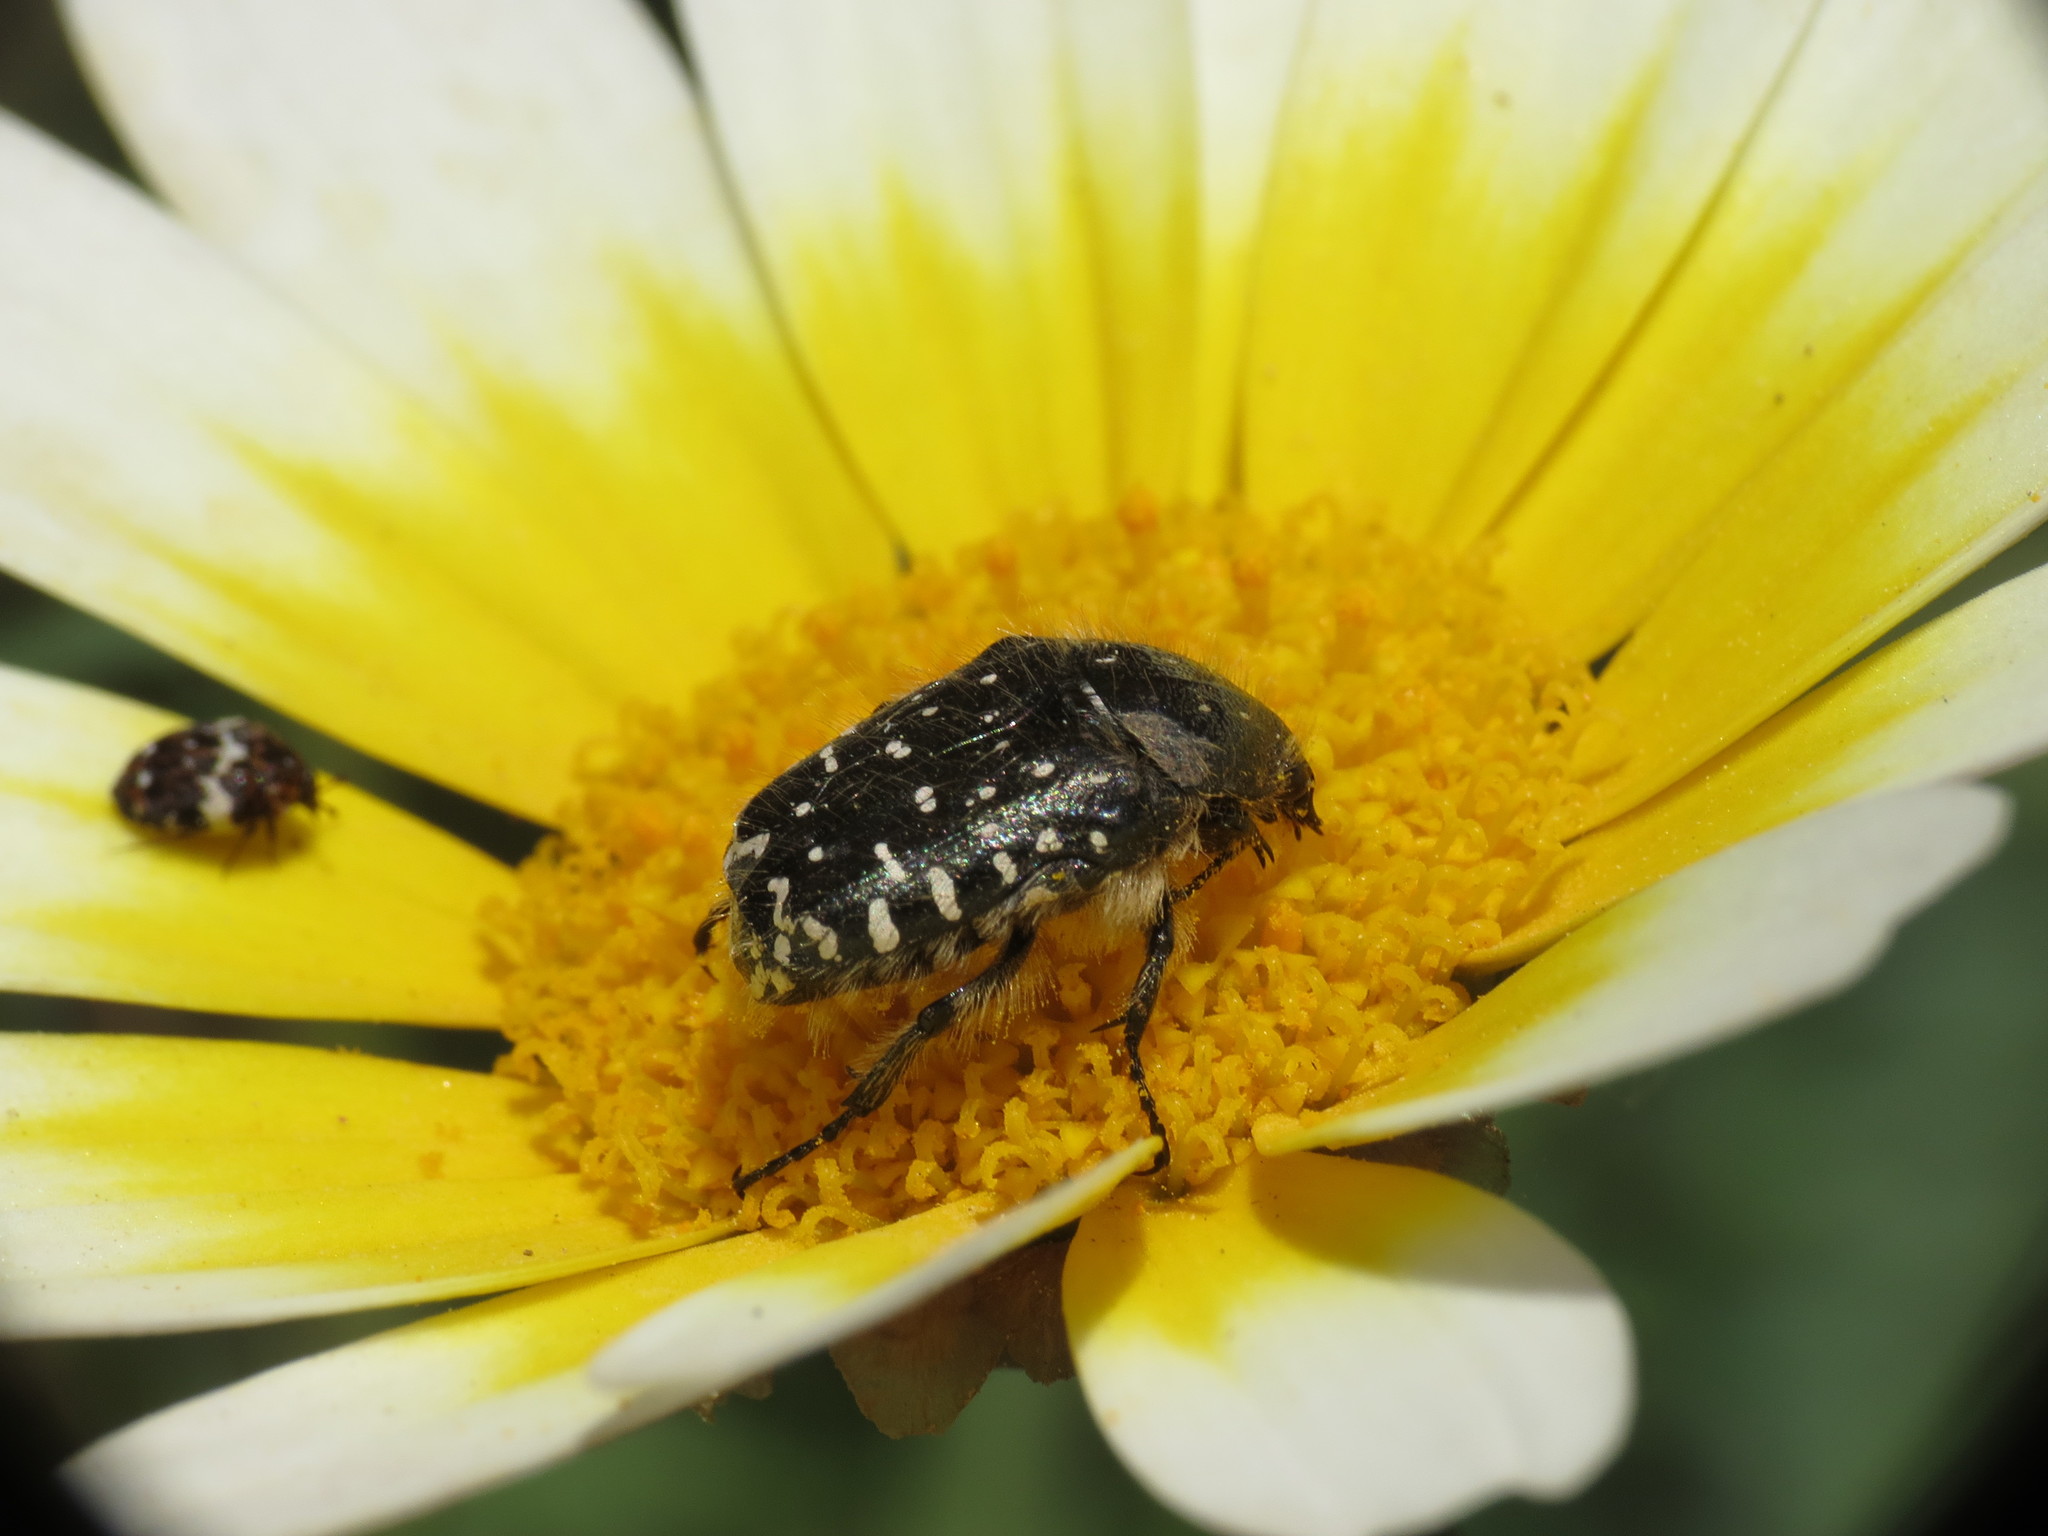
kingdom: Animalia
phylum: Arthropoda
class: Insecta
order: Coleoptera
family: Scarabaeidae
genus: Oxythyrea
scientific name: Oxythyrea funesta
